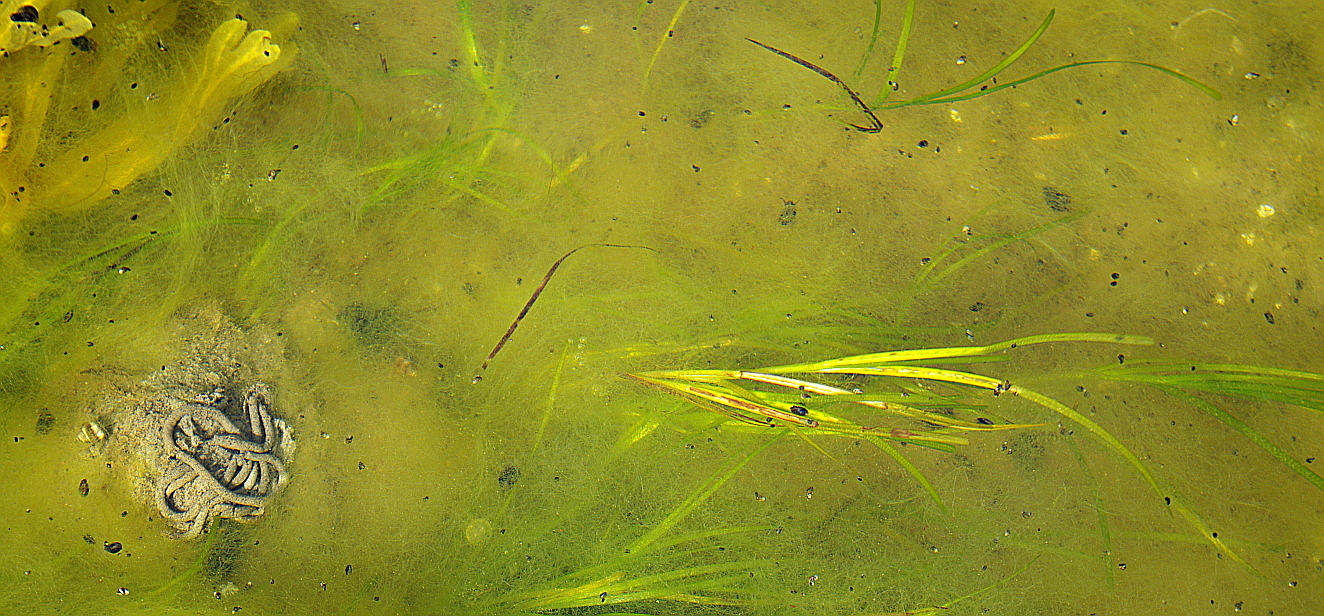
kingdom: Animalia
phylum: Annelida
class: Polychaeta
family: Arenicolidae
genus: Arenicola
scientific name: Arenicola marina
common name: Blow lugworm
